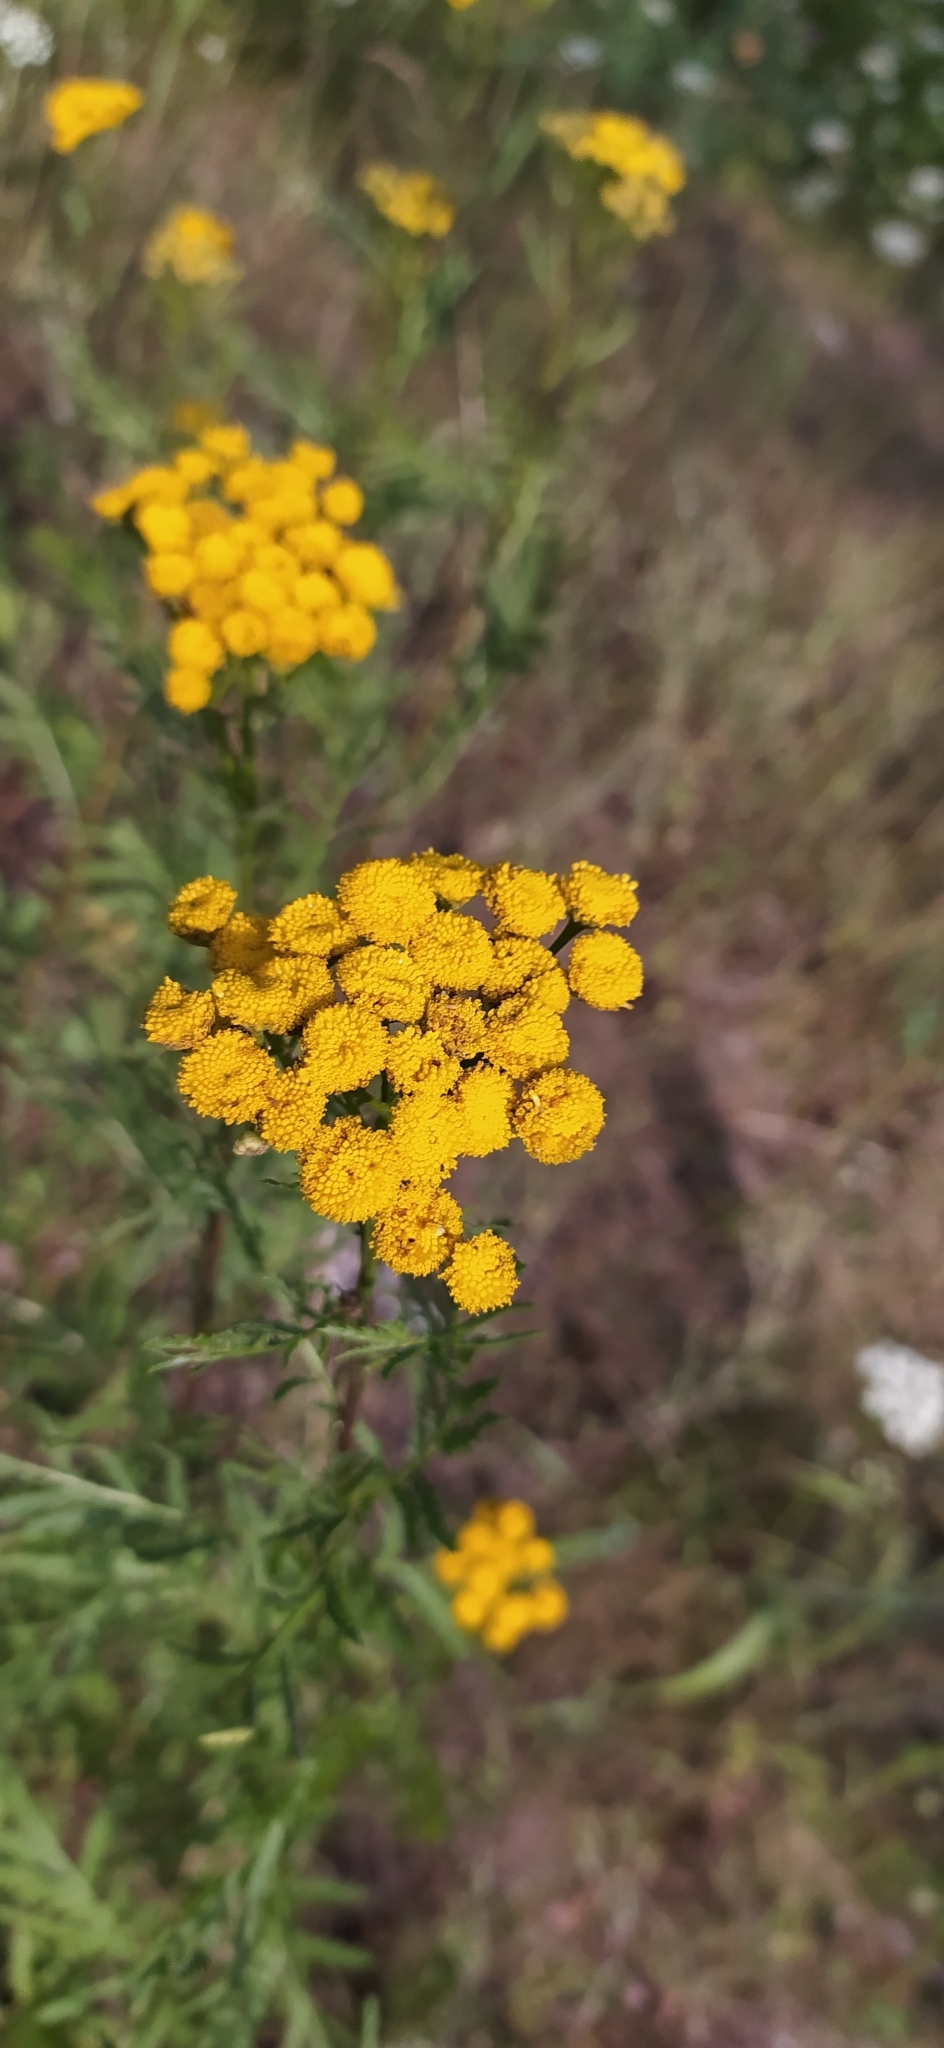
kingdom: Plantae
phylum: Tracheophyta
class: Magnoliopsida
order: Asterales
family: Asteraceae
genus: Tanacetum
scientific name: Tanacetum vulgare
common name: Common tansy
